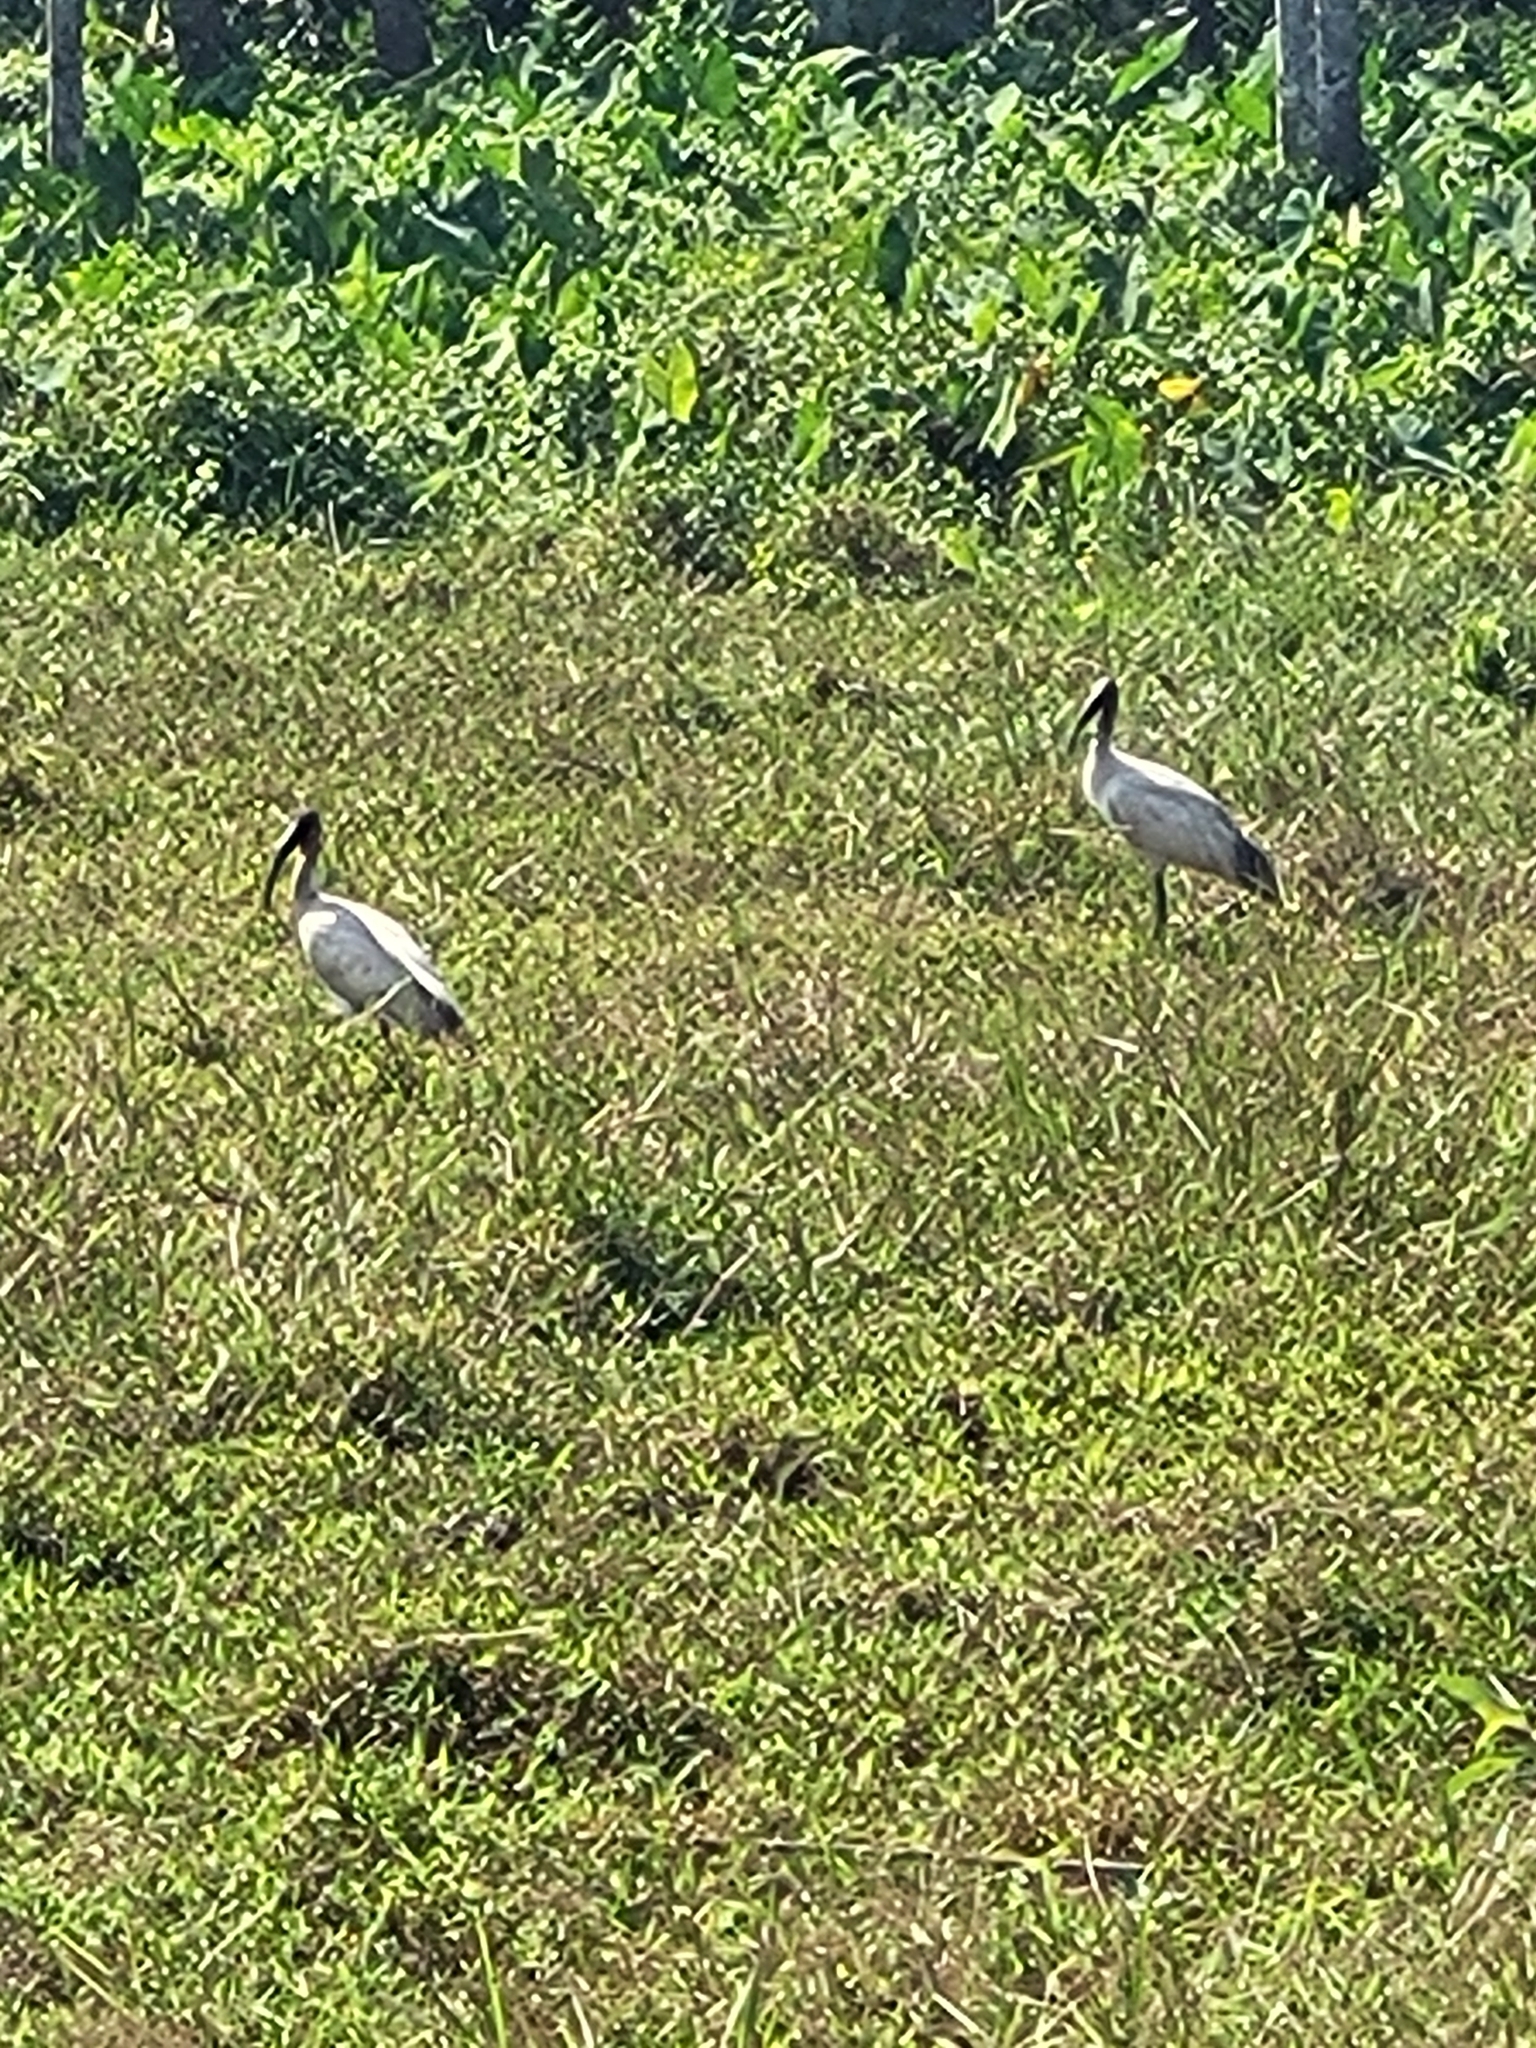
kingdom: Animalia
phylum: Chordata
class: Aves
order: Pelecaniformes
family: Threskiornithidae
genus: Threskiornis
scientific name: Threskiornis melanocephalus
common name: Black-headed ibis
